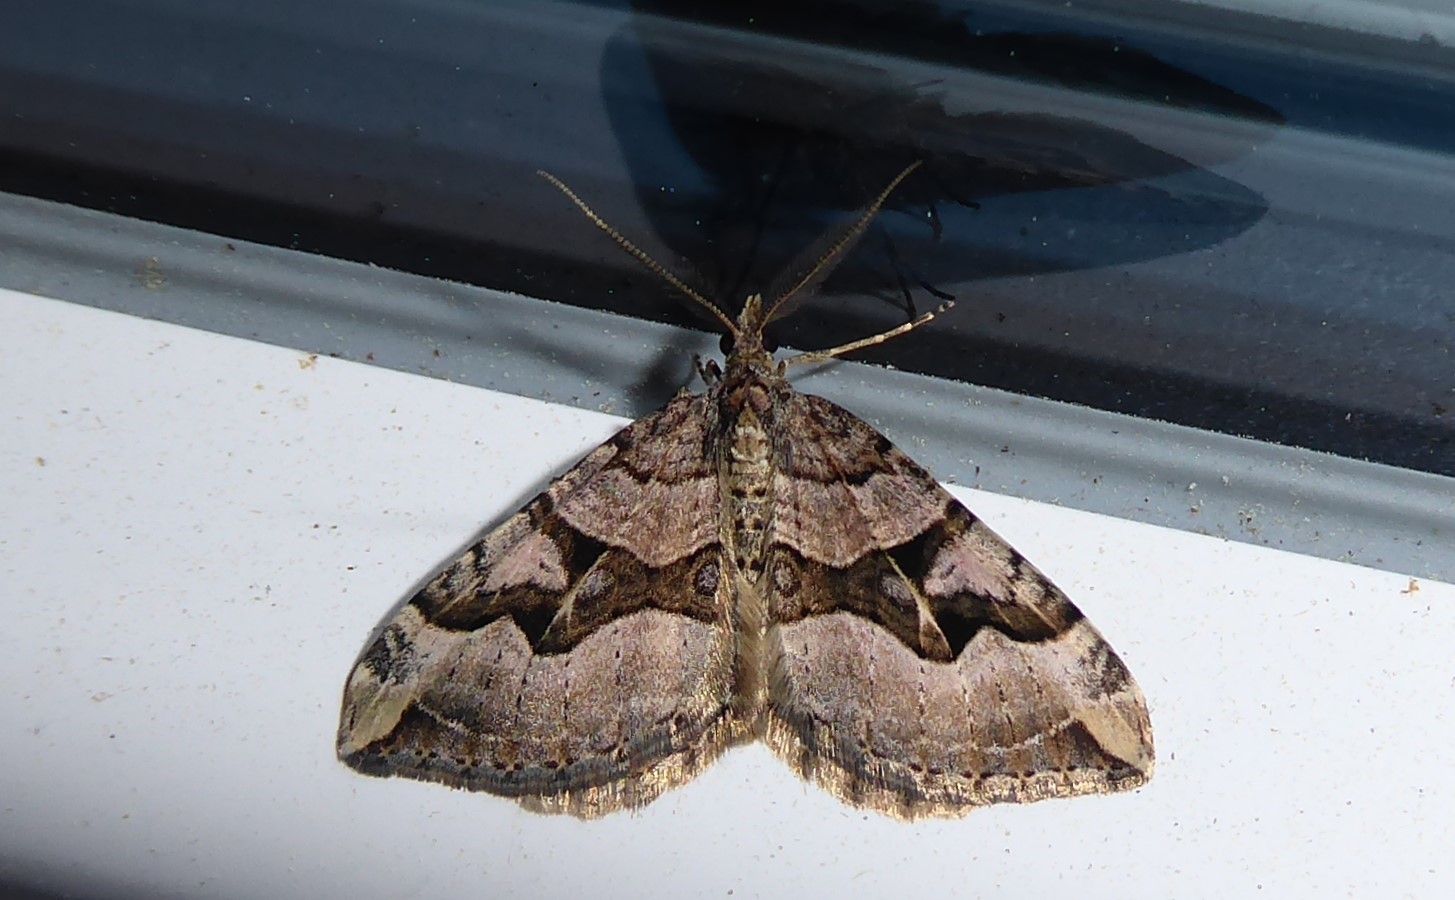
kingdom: Animalia
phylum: Arthropoda
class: Insecta
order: Lepidoptera
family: Geometridae
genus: Xanthorhoe
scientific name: Xanthorhoe semifissata
